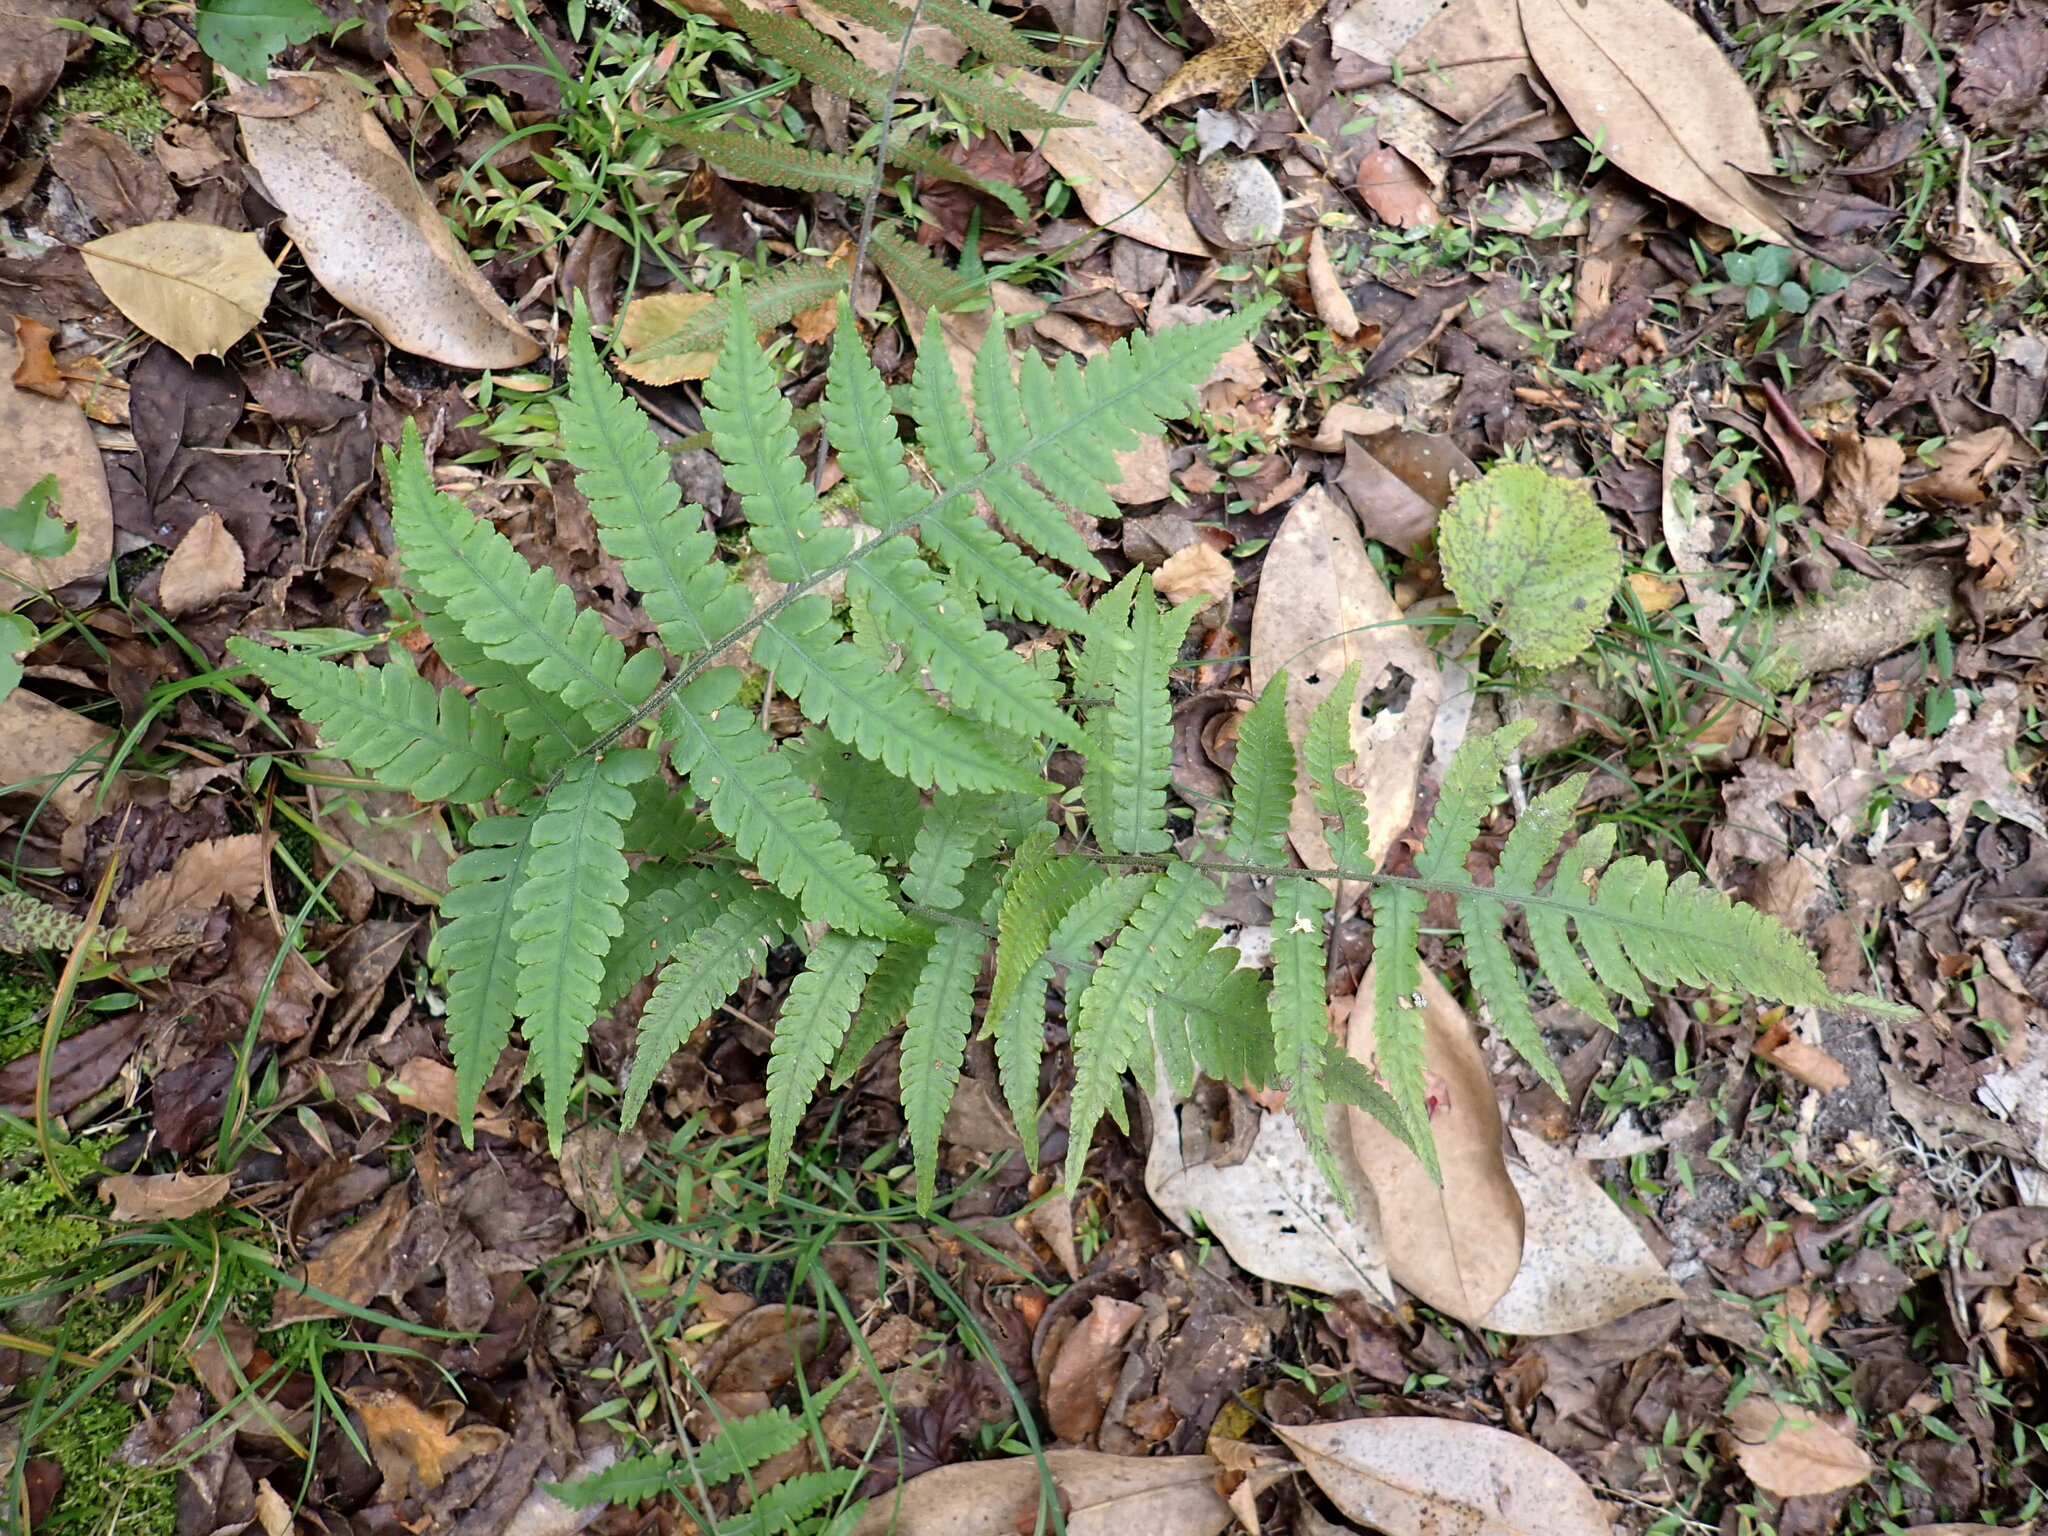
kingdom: Plantae
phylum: Tracheophyta
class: Polypodiopsida
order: Polypodiales
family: Athyriaceae
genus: Deparia
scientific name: Deparia petersenii
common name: Japanese false spleenwort
